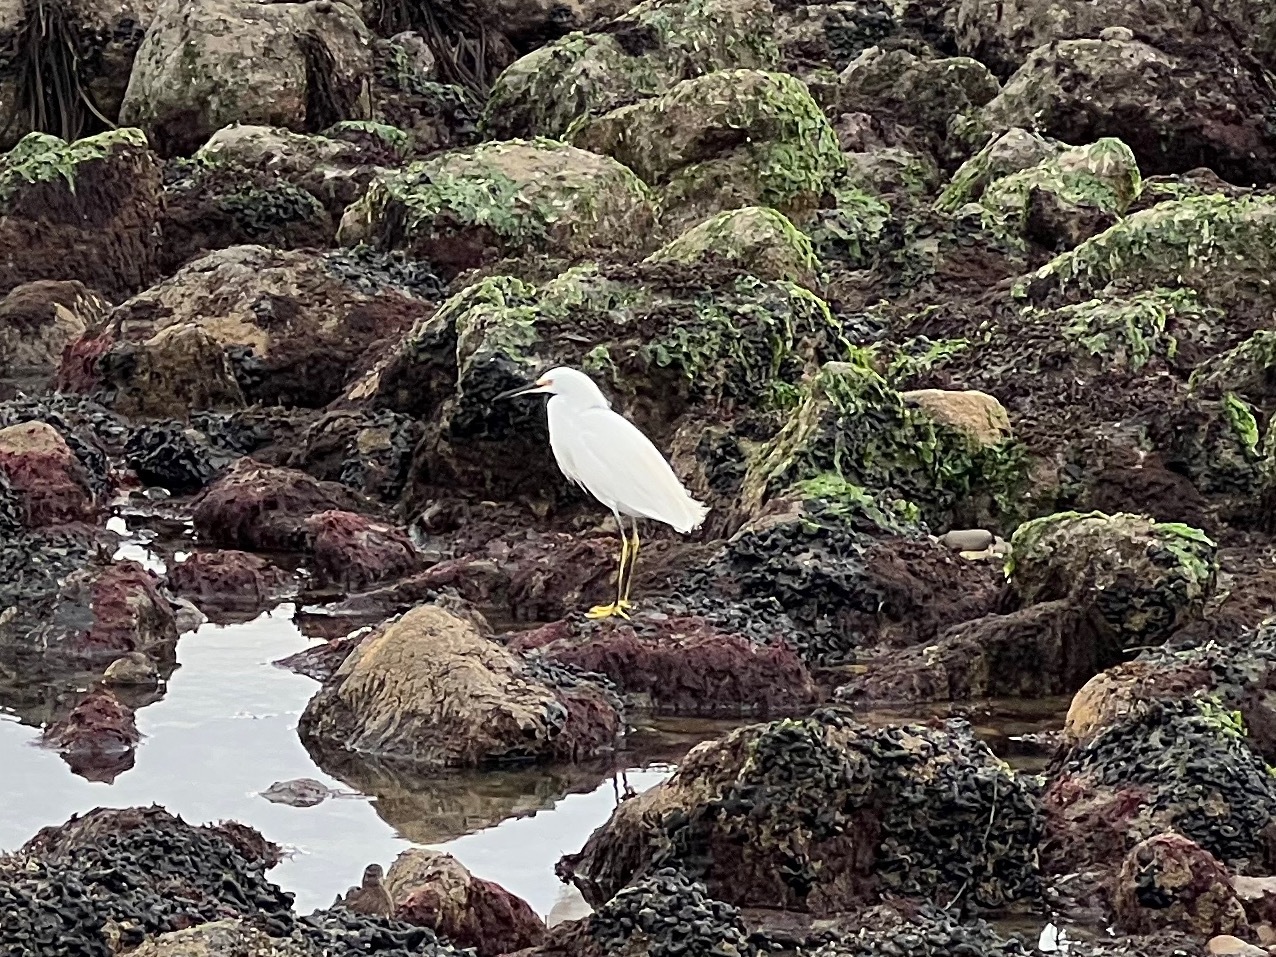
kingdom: Animalia
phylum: Chordata
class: Aves
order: Pelecaniformes
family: Ardeidae
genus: Egretta
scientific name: Egretta thula
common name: Snowy egret
